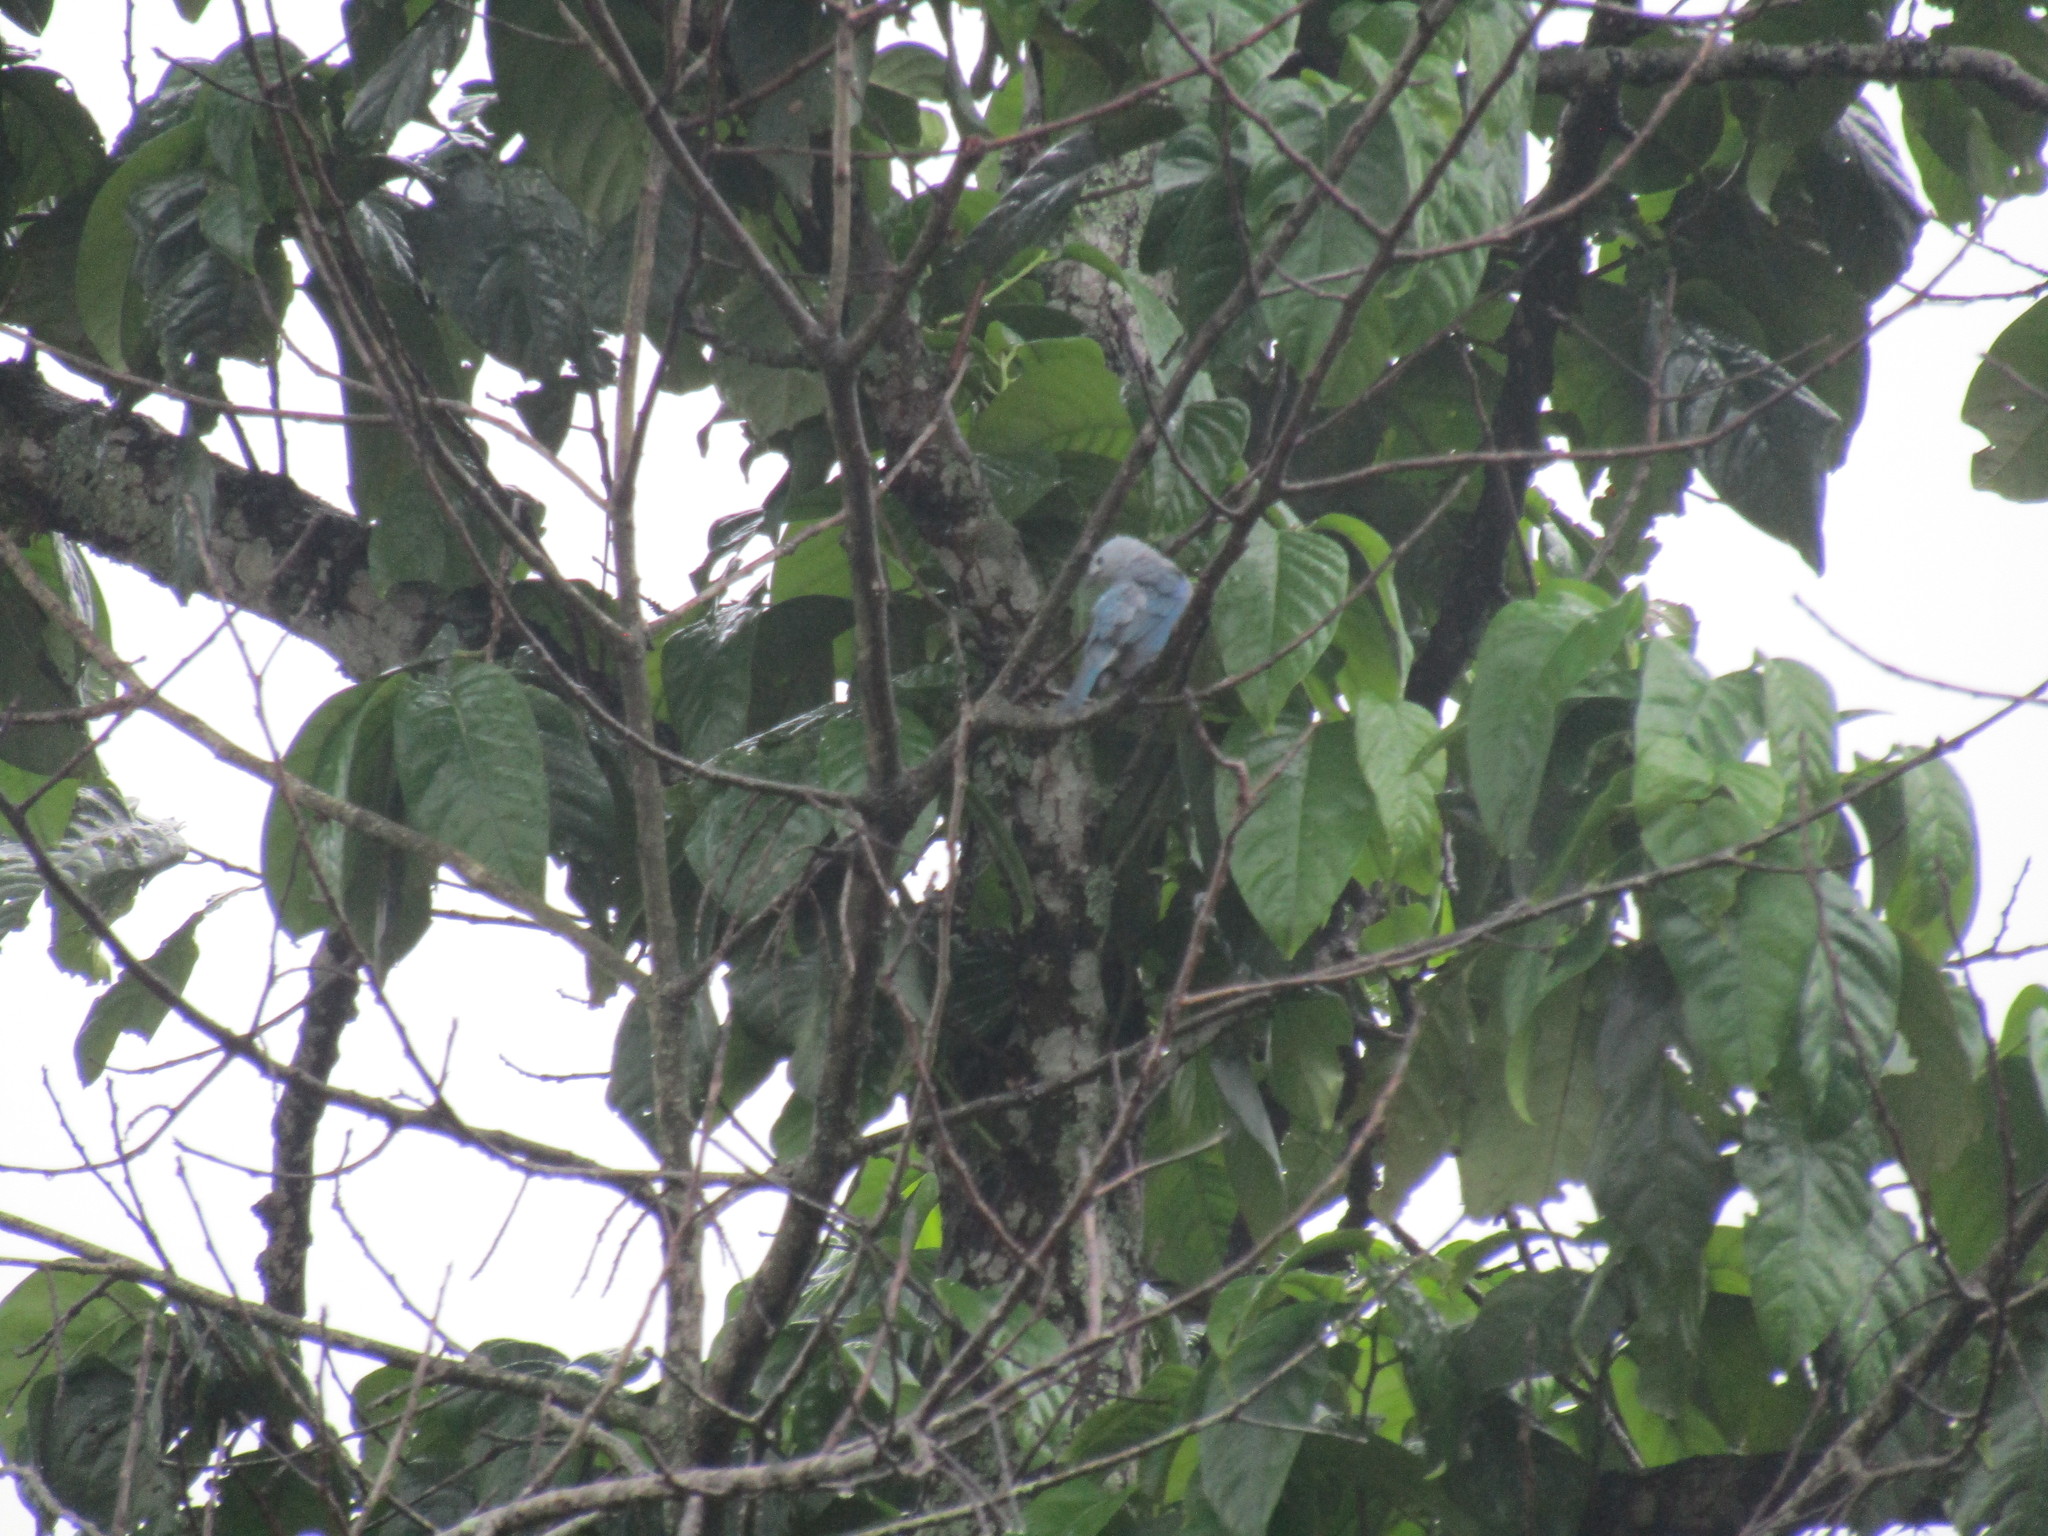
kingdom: Animalia
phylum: Chordata
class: Aves
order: Passeriformes
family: Thraupidae
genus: Thraupis
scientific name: Thraupis episcopus
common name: Blue-grey tanager
